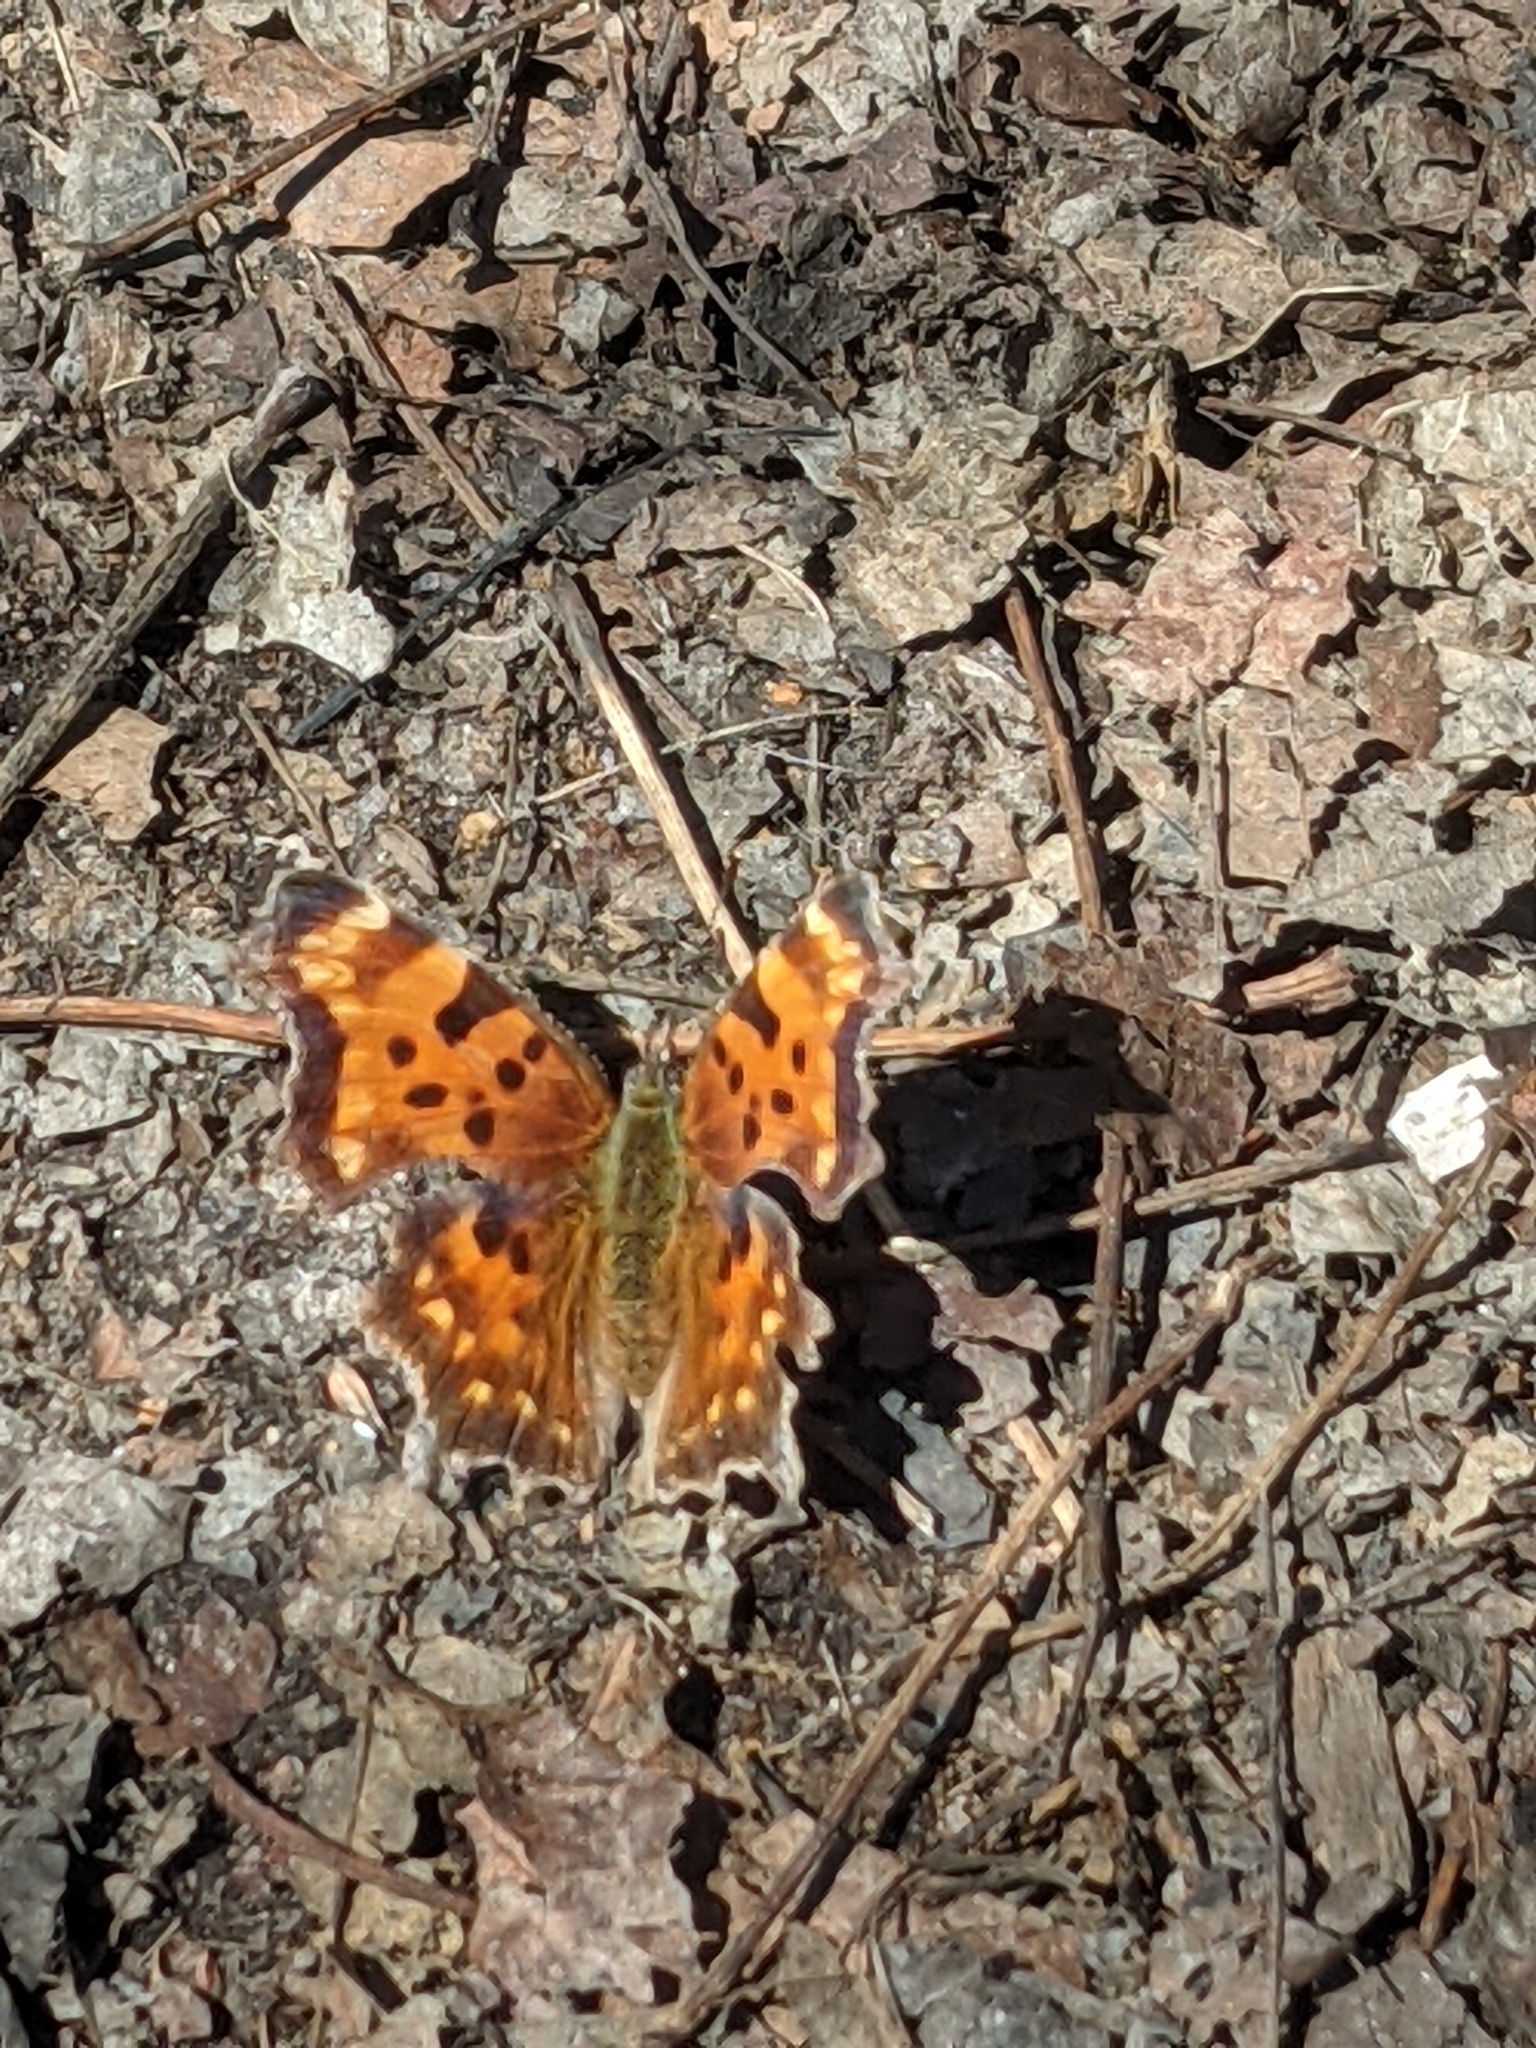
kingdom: Animalia
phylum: Arthropoda
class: Insecta
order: Lepidoptera
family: Nymphalidae
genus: Polygonia
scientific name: Polygonia faunus
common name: Green comma
